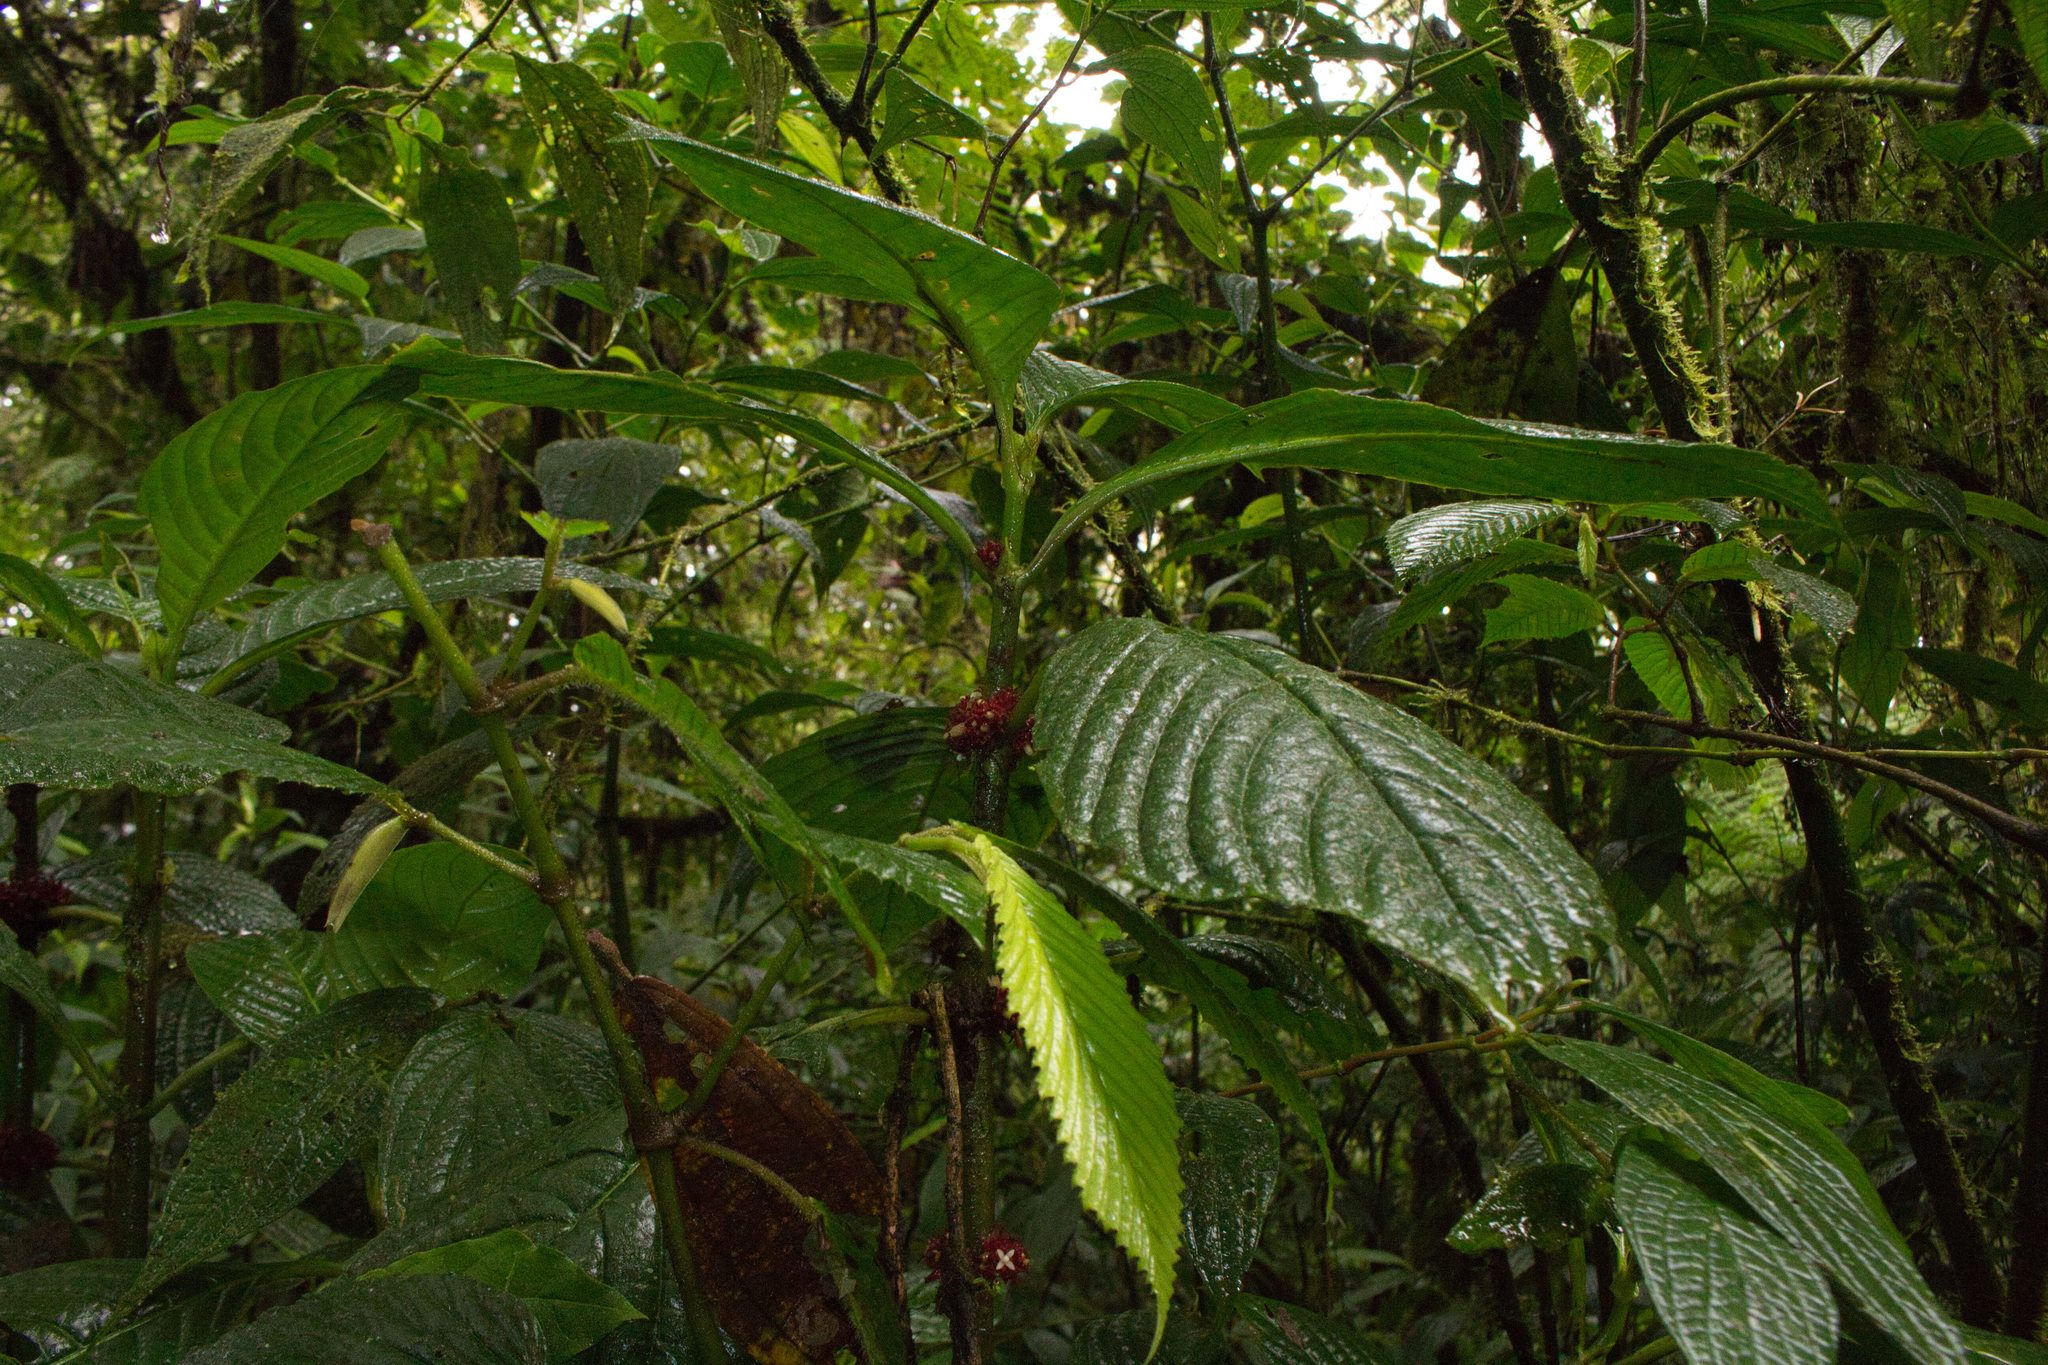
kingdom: Plantae
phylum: Tracheophyta
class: Magnoliopsida
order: Gentianales
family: Rubiaceae
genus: Hoffmannia
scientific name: Hoffmannia congesta
